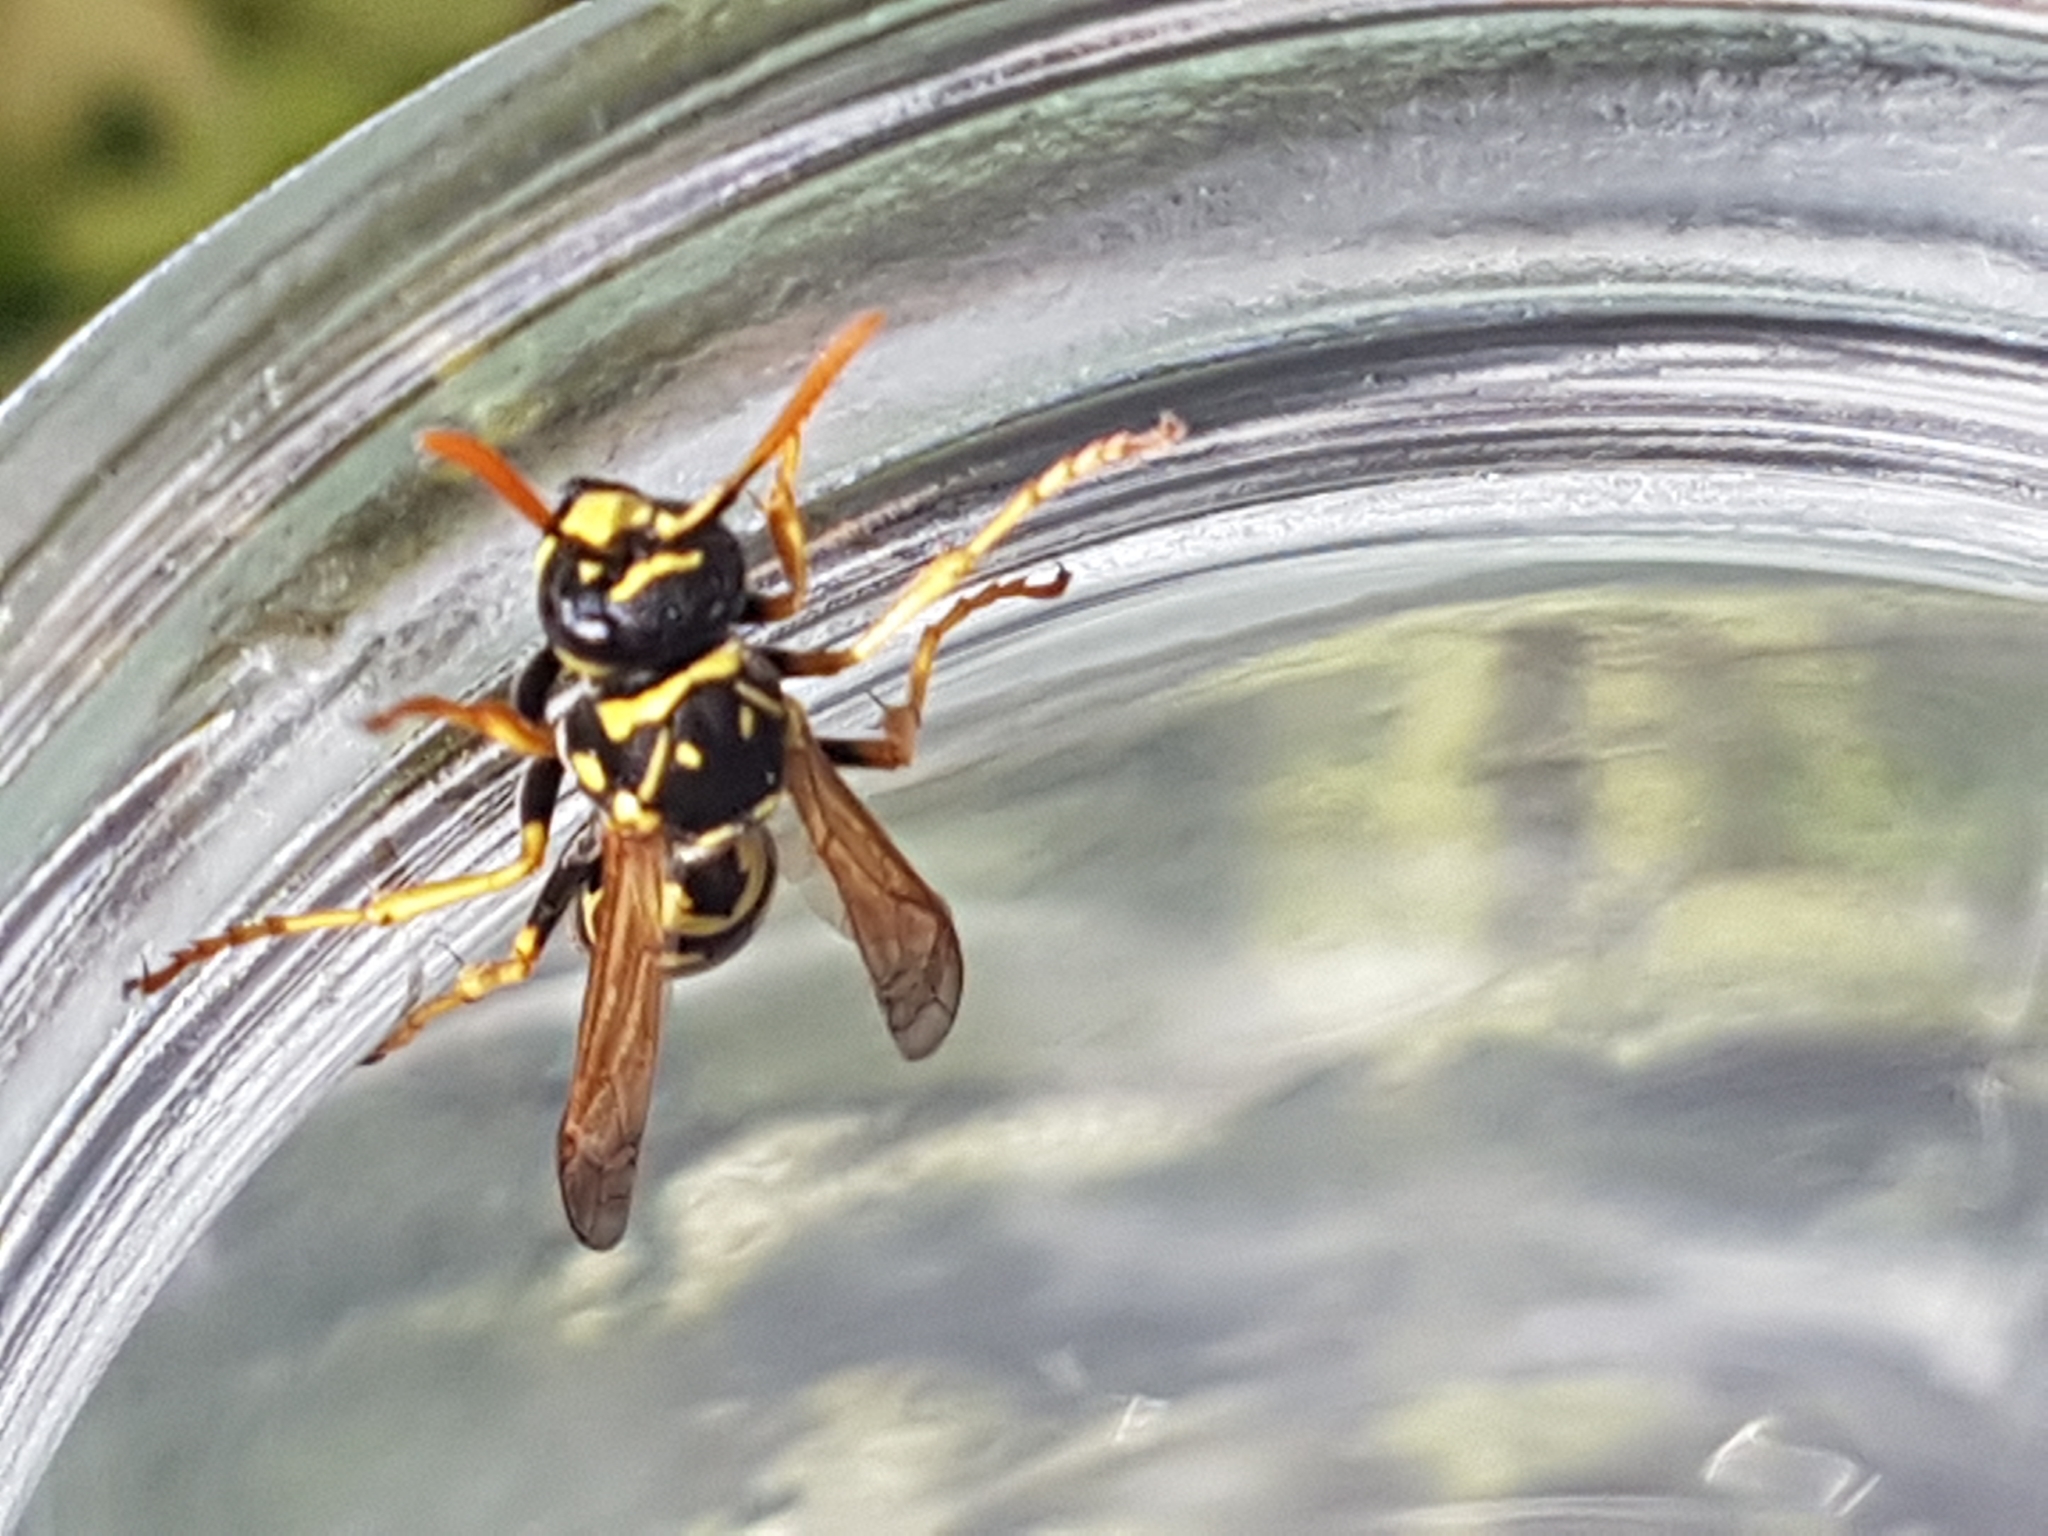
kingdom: Animalia
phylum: Arthropoda
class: Insecta
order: Hymenoptera
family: Eumenidae
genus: Polistes
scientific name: Polistes dominula
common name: Paper wasp
